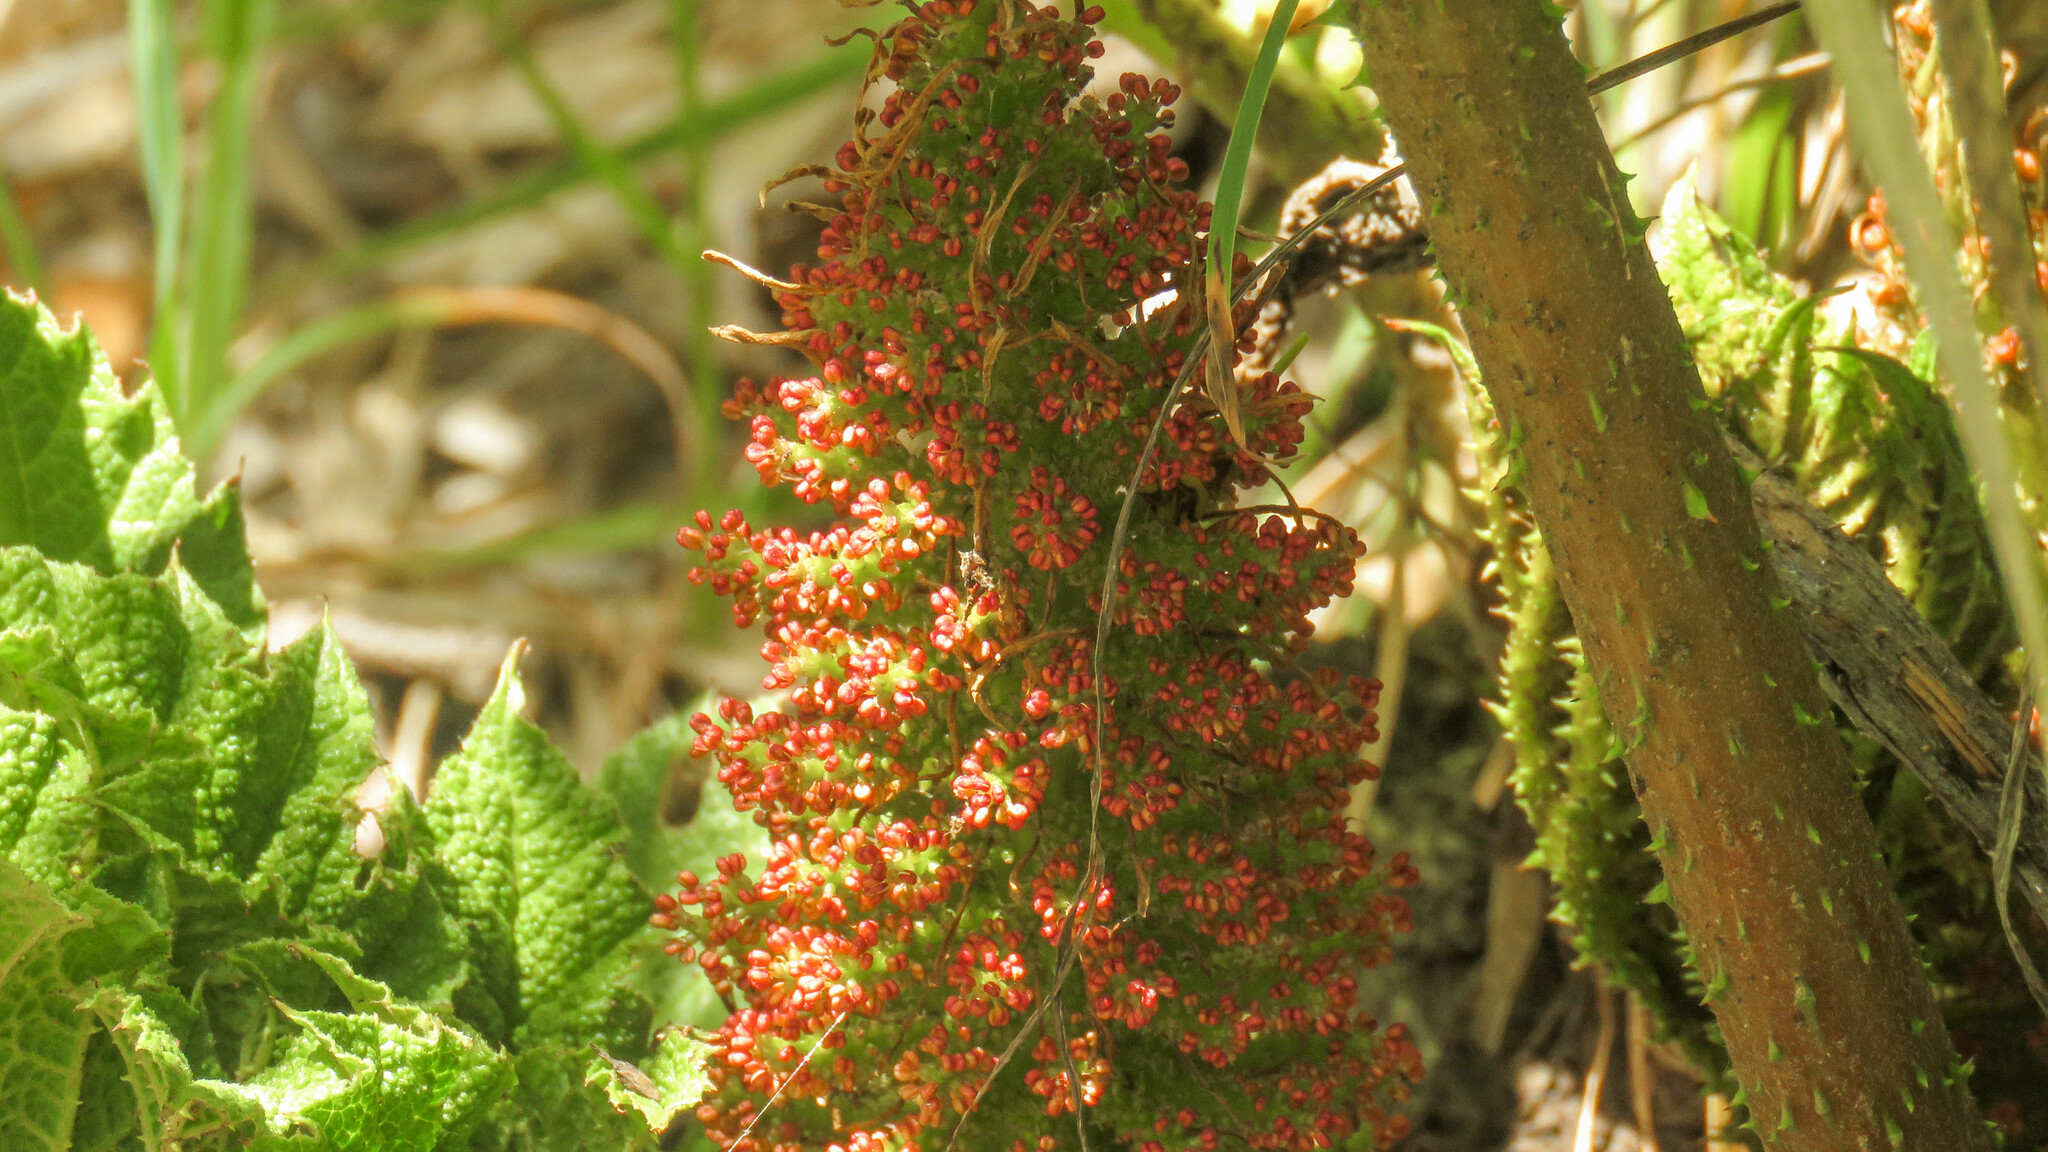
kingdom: Plantae
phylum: Tracheophyta
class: Magnoliopsida
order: Gunnerales
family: Gunneraceae
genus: Gunnera
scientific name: Gunnera tinctoria
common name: Giant-rhubarb
